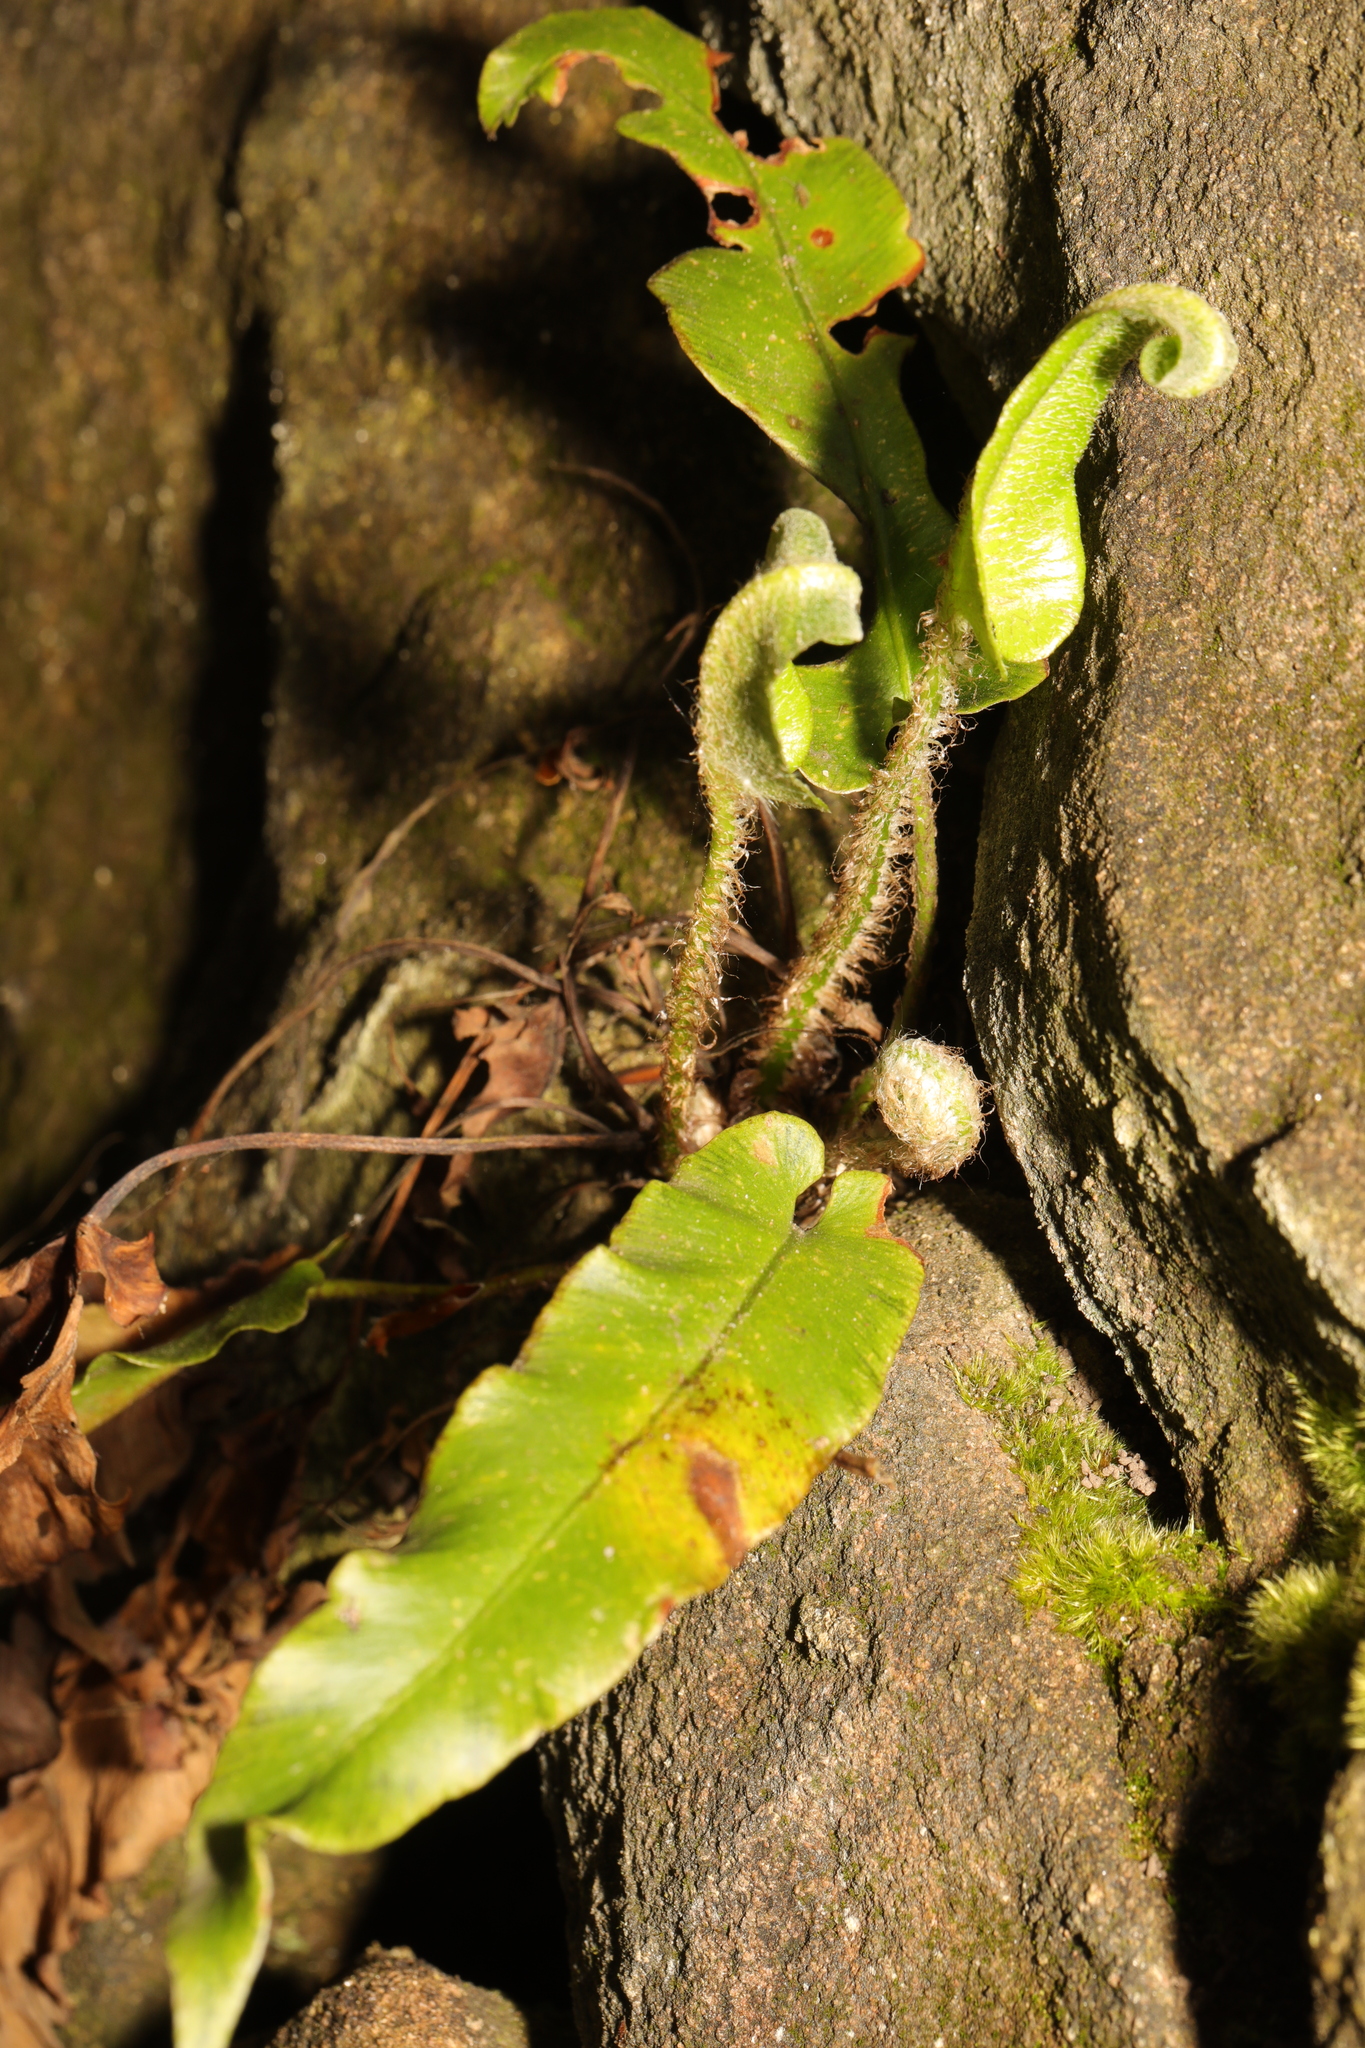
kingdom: Plantae
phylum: Tracheophyta
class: Polypodiopsida
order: Polypodiales
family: Aspleniaceae
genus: Asplenium
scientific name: Asplenium scolopendrium
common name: Hart's-tongue fern
